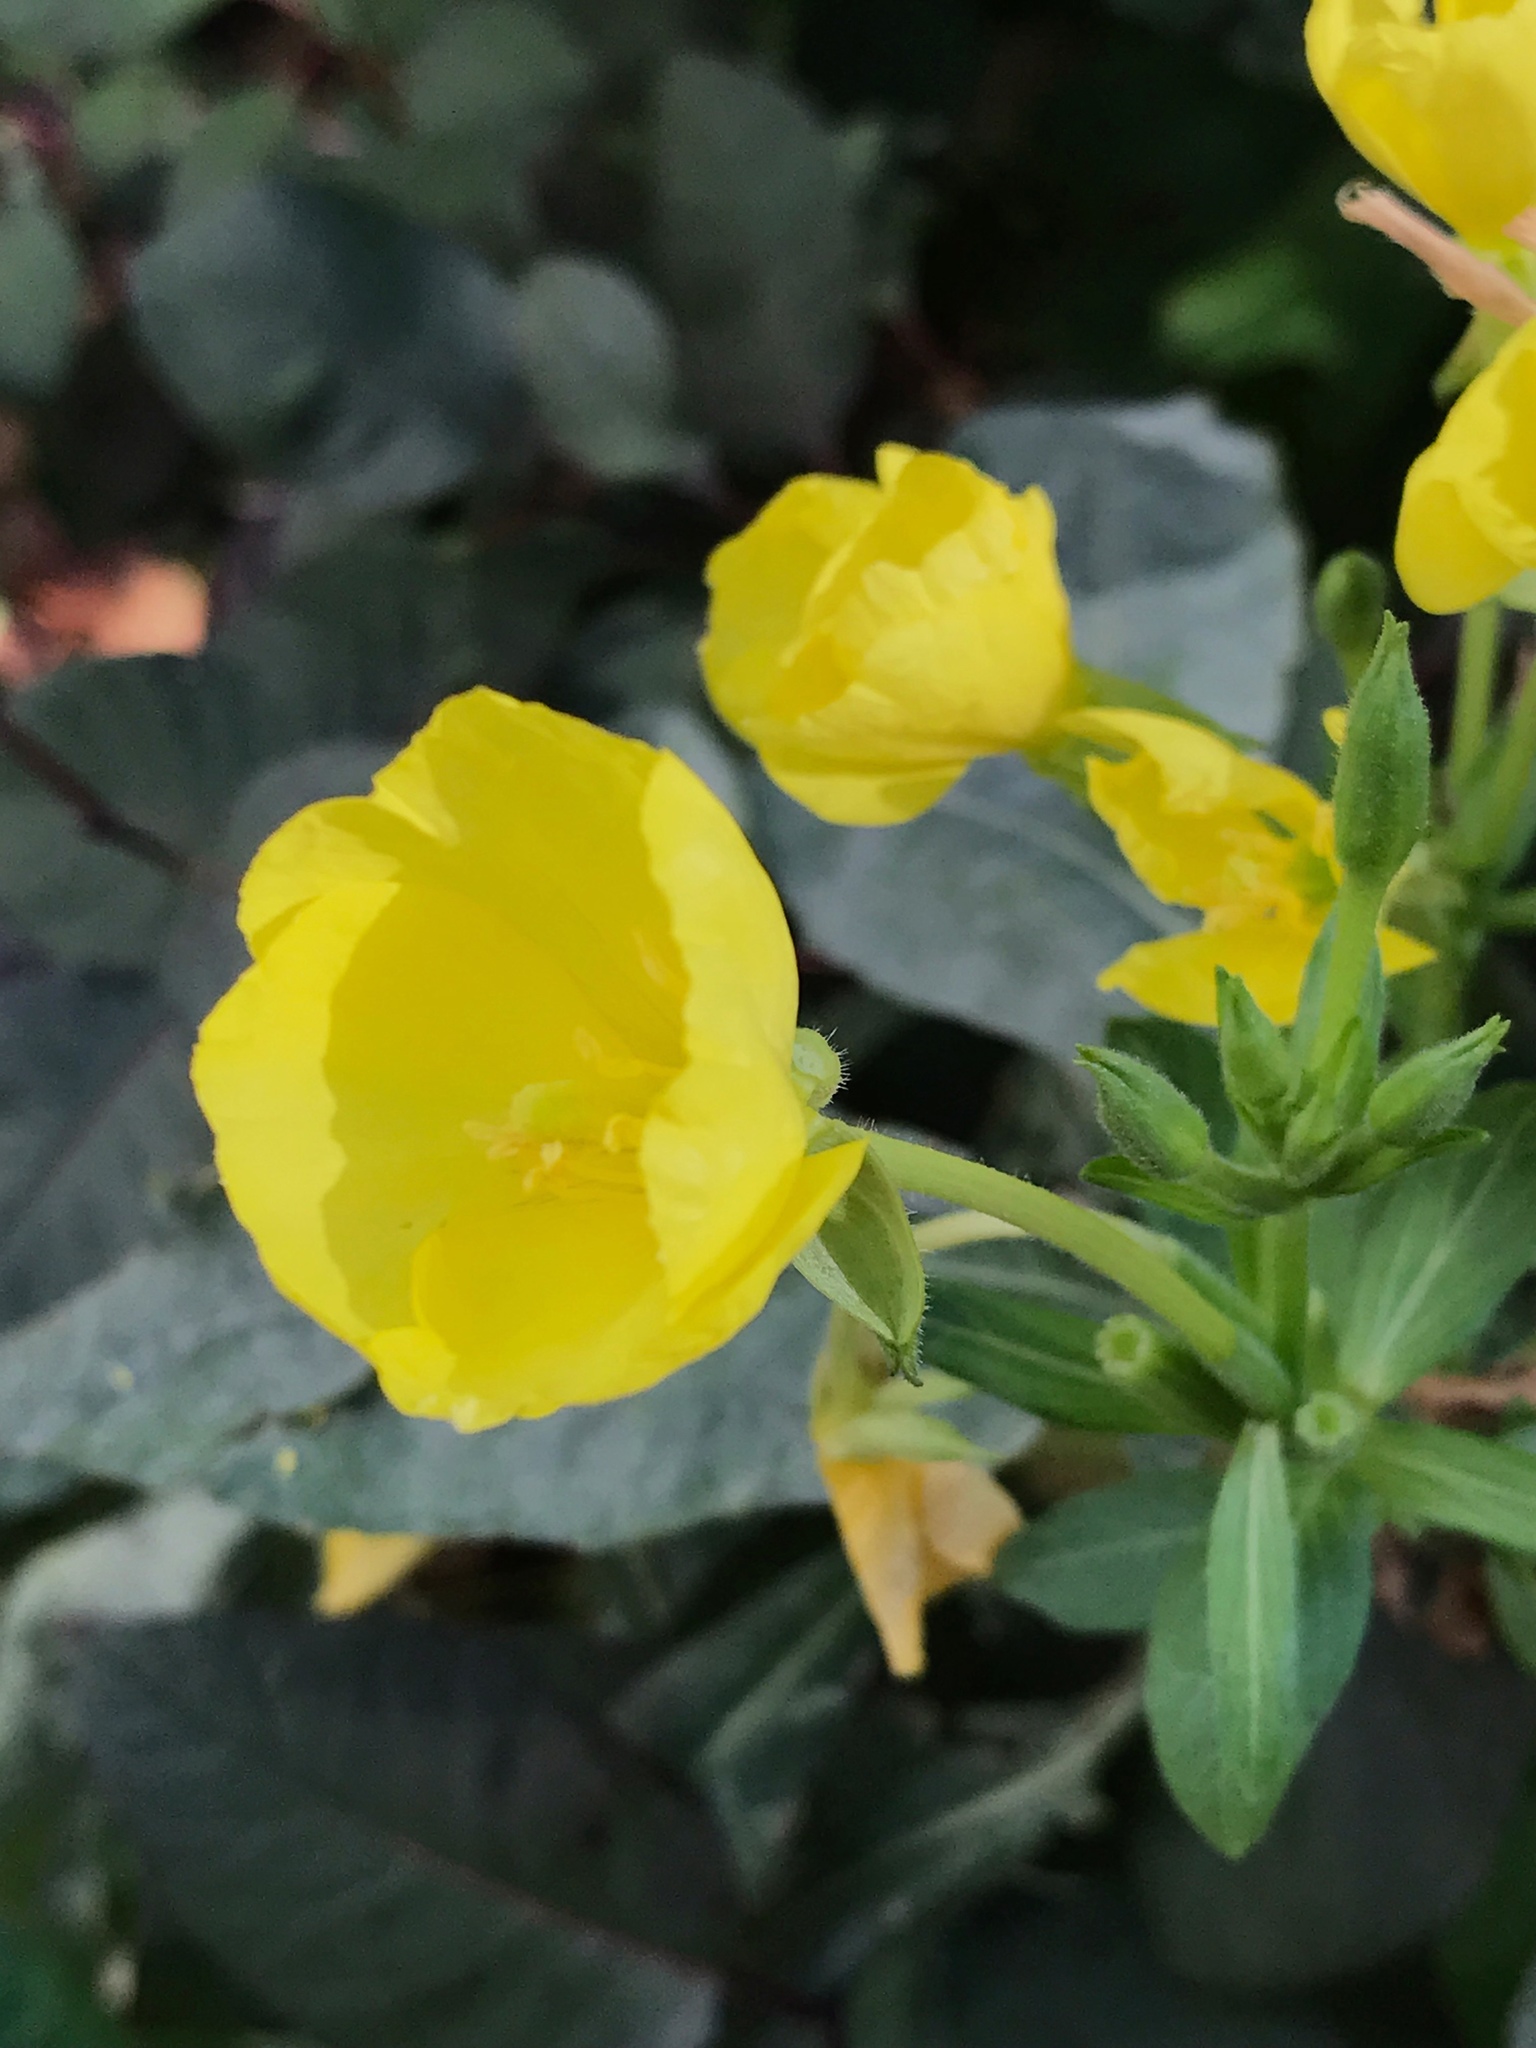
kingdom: Plantae
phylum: Tracheophyta
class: Magnoliopsida
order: Myrtales
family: Onagraceae
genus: Oenothera
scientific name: Oenothera biennis
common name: Common evening-primrose
